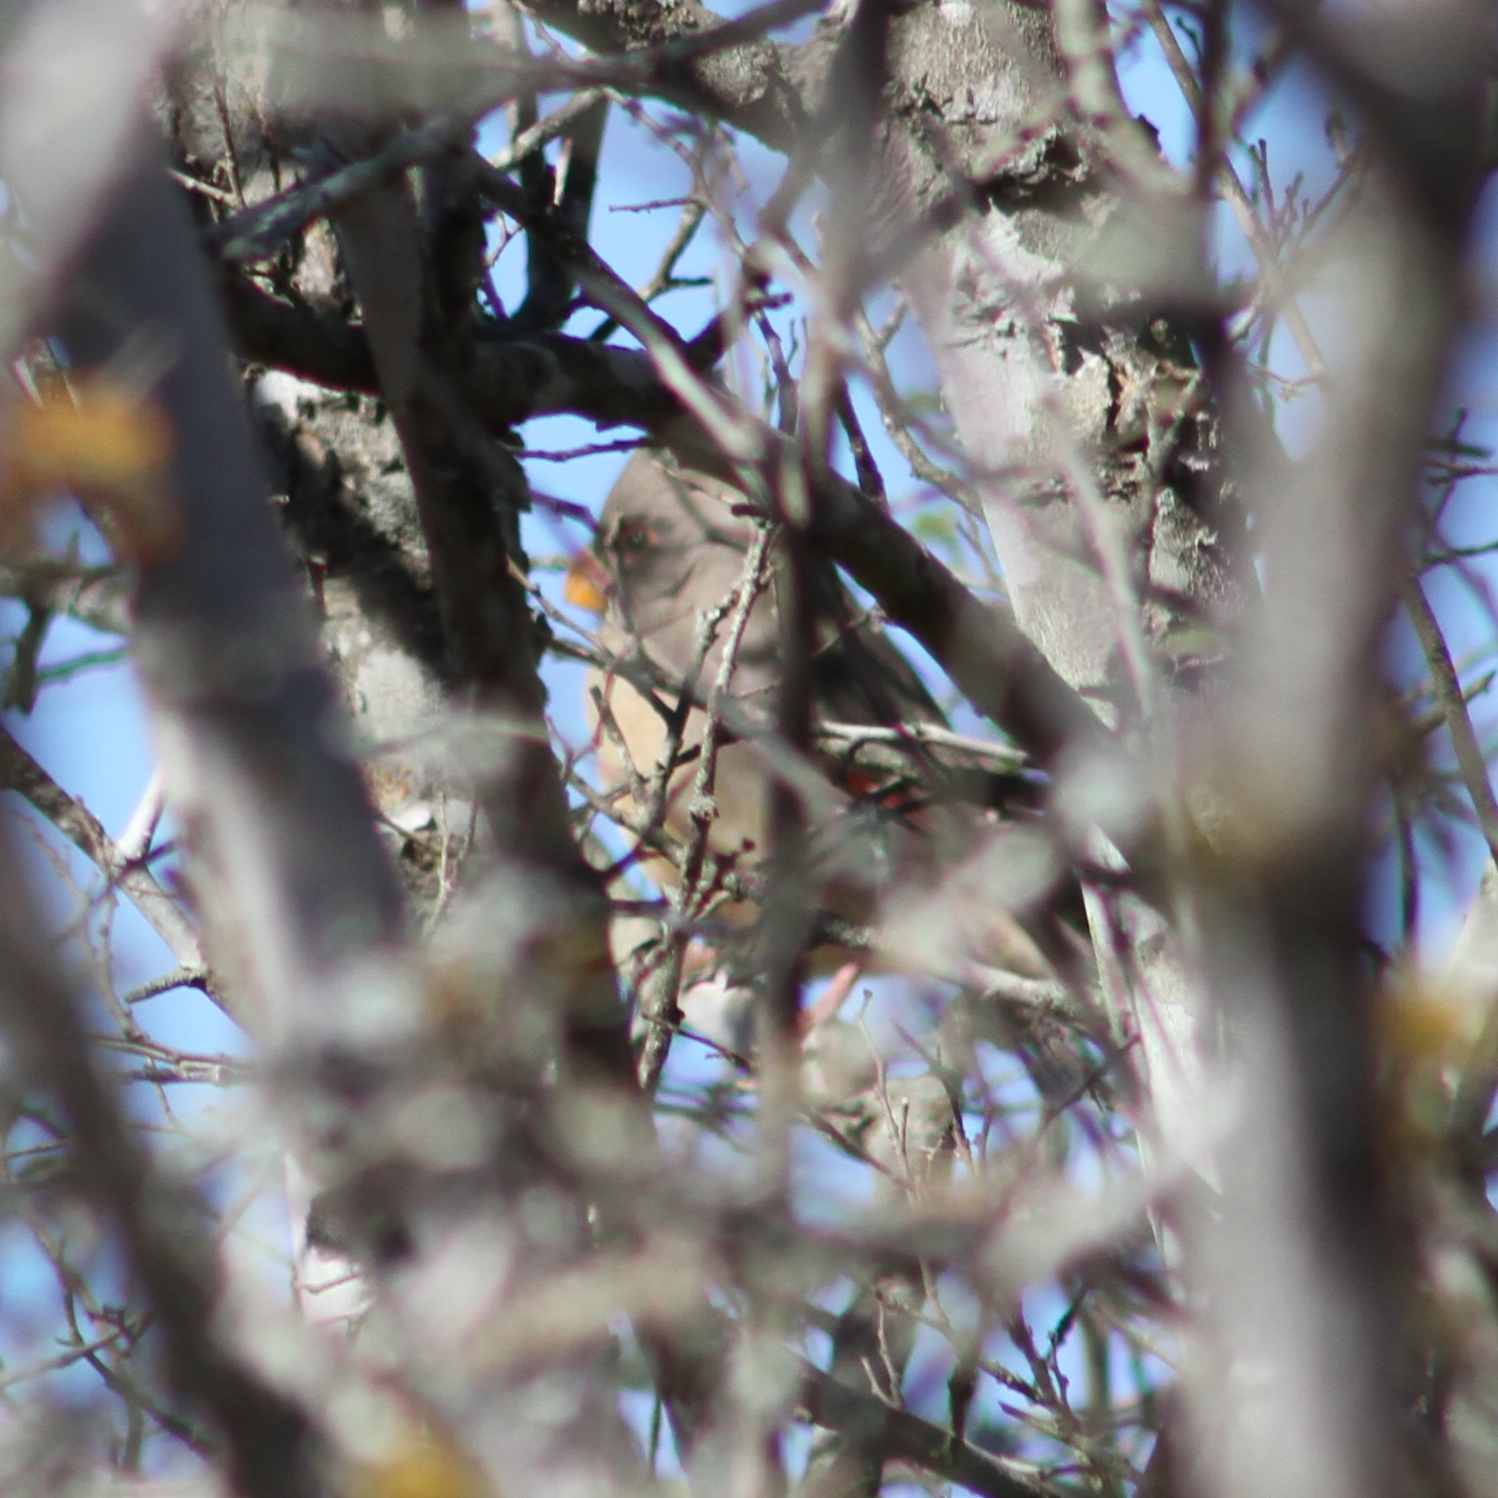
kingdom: Animalia
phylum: Chordata
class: Aves
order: Passeriformes
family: Cardinalidae
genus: Cardinalis
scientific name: Cardinalis sinuatus
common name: Pyrrhuloxia
